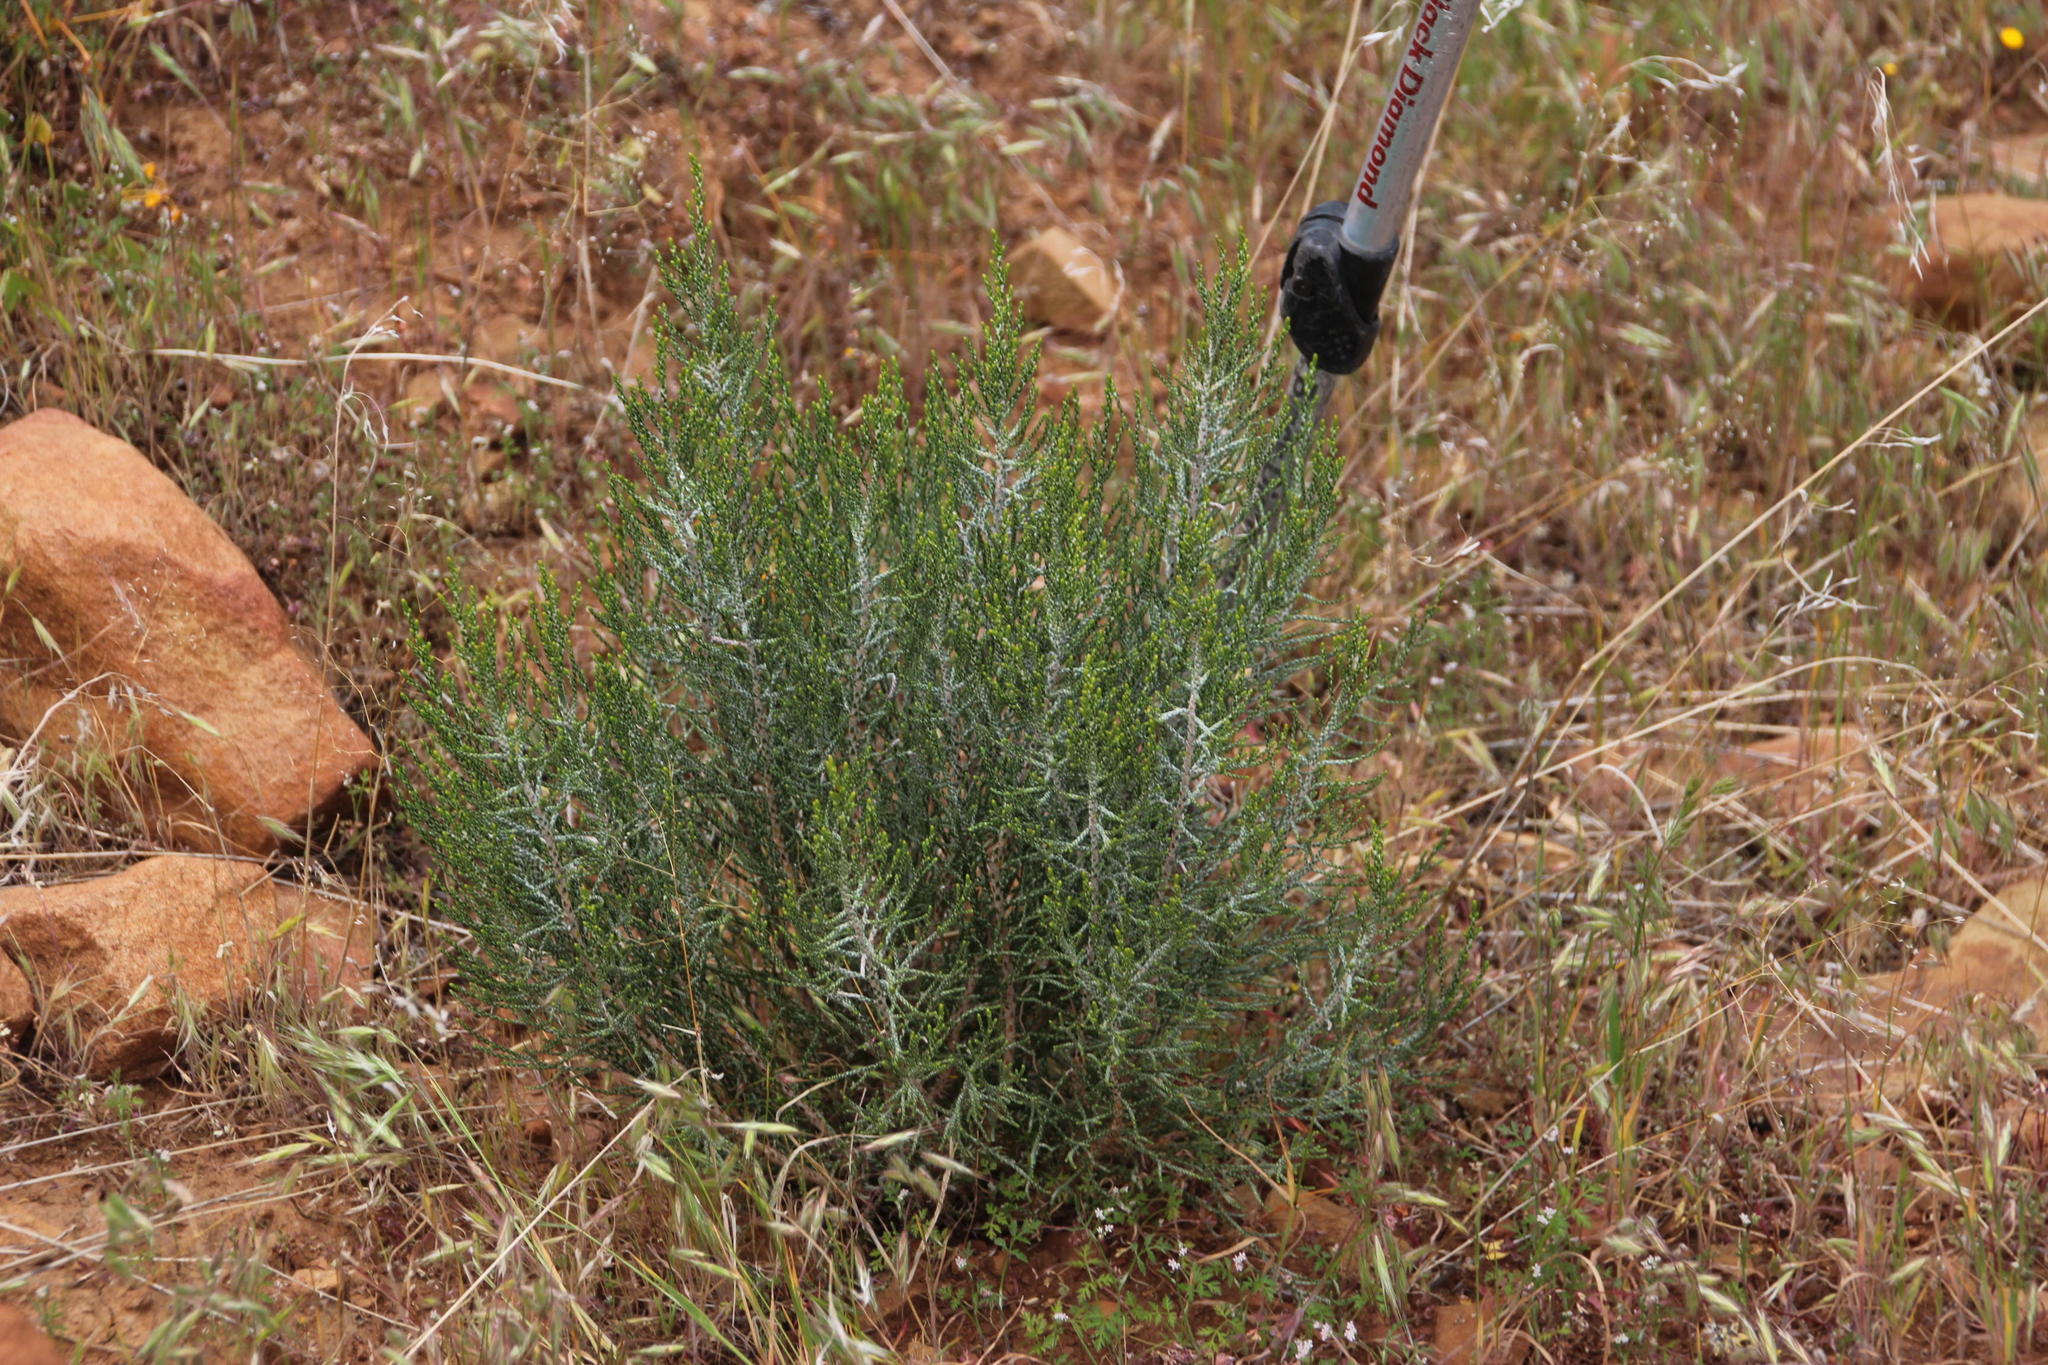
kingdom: Plantae
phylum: Tracheophyta
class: Magnoliopsida
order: Asterales
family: Asteraceae
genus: Dicerothamnus
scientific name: Dicerothamnus rhinocerotis
